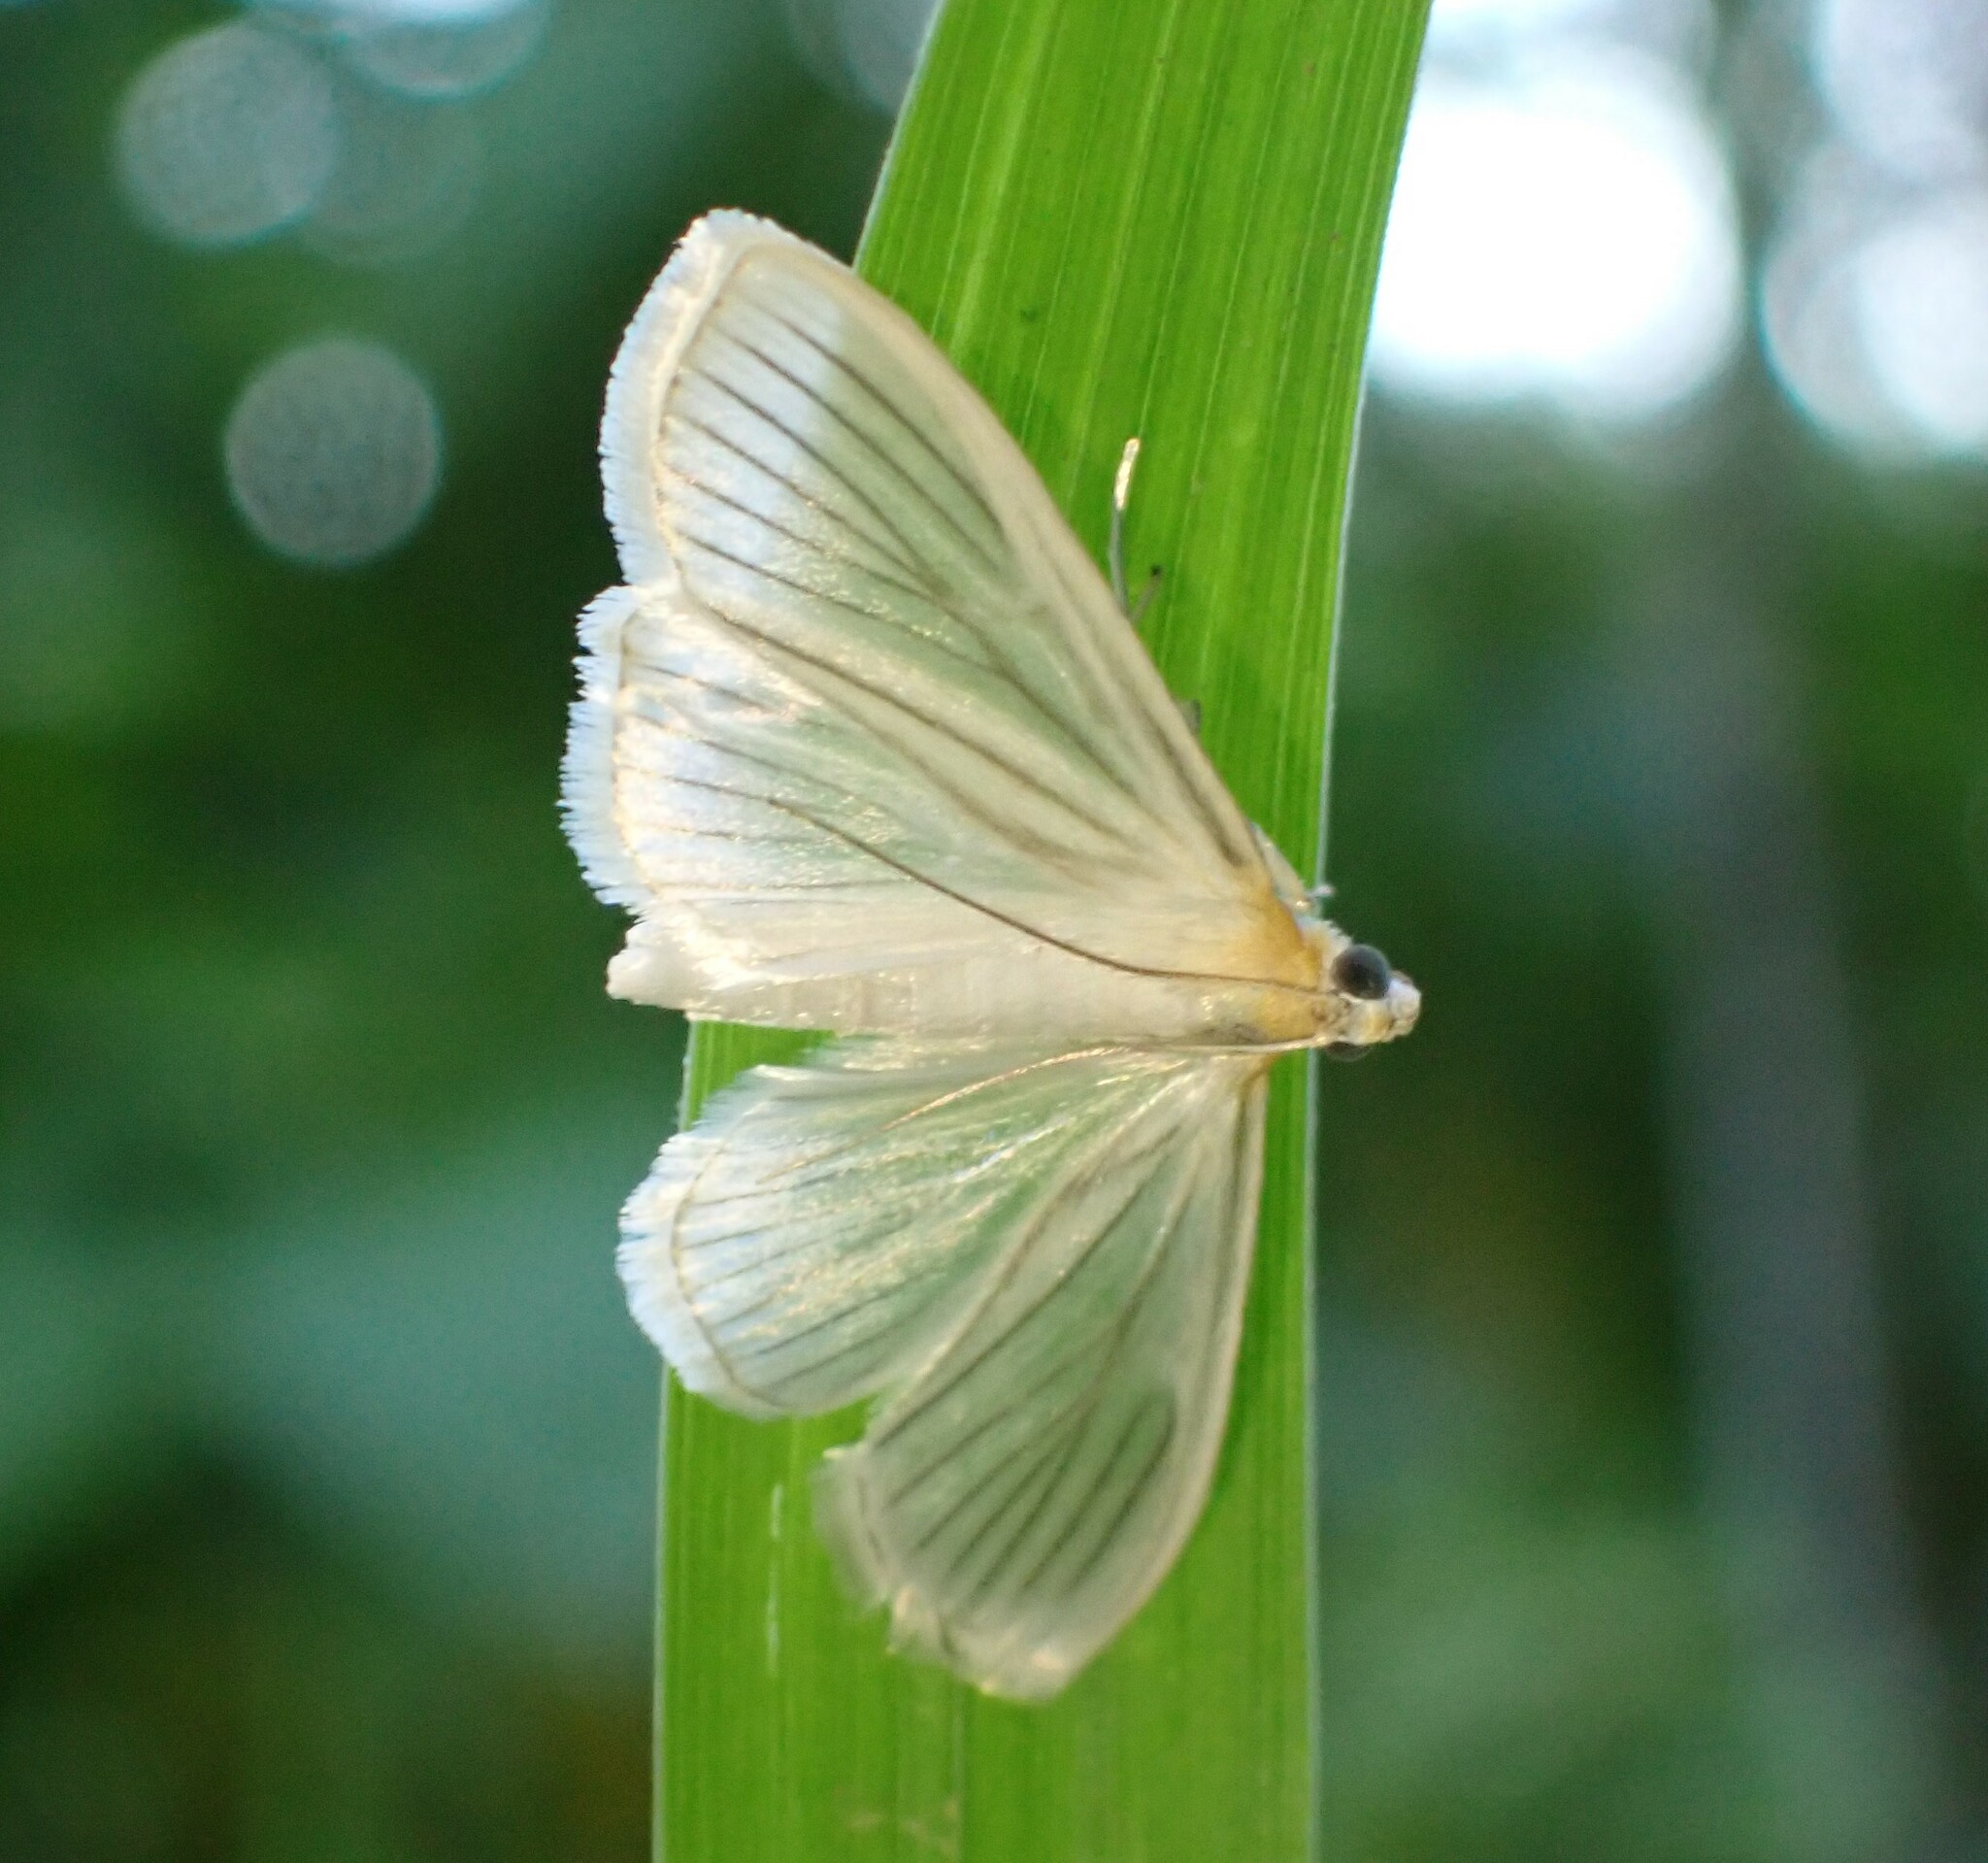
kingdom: Animalia
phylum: Arthropoda
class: Insecta
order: Lepidoptera
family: Crambidae
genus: Syllepte
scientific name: Syllepte striginervalis
